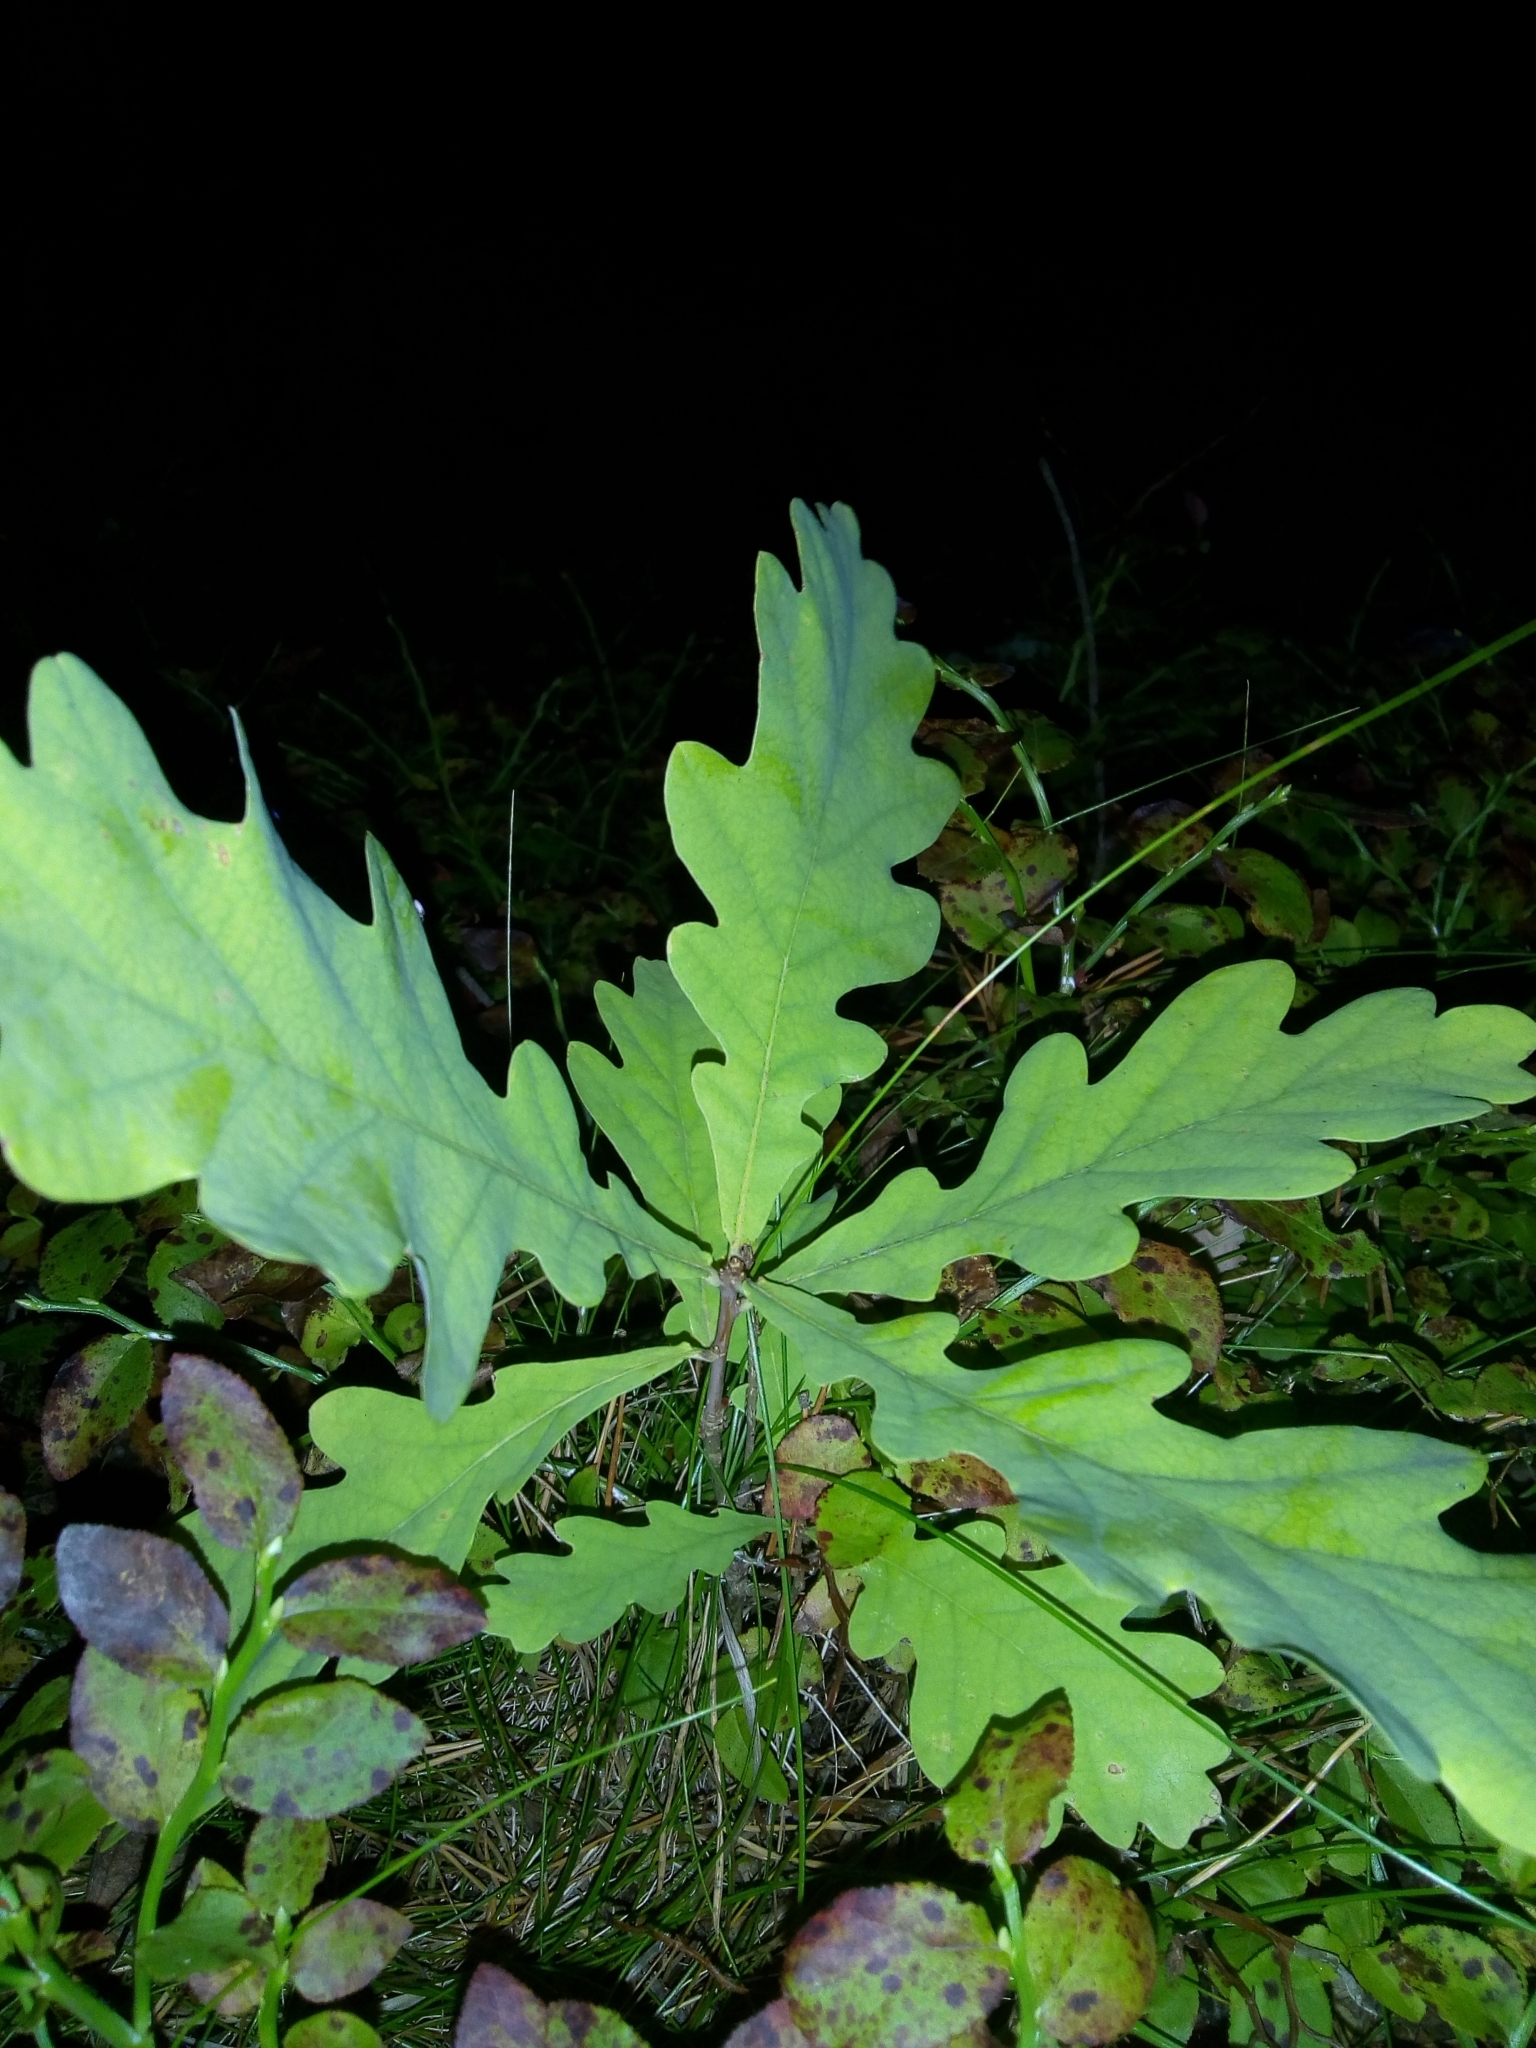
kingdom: Plantae
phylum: Tracheophyta
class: Magnoliopsida
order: Fagales
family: Fagaceae
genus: Quercus
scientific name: Quercus robur
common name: Pedunculate oak
